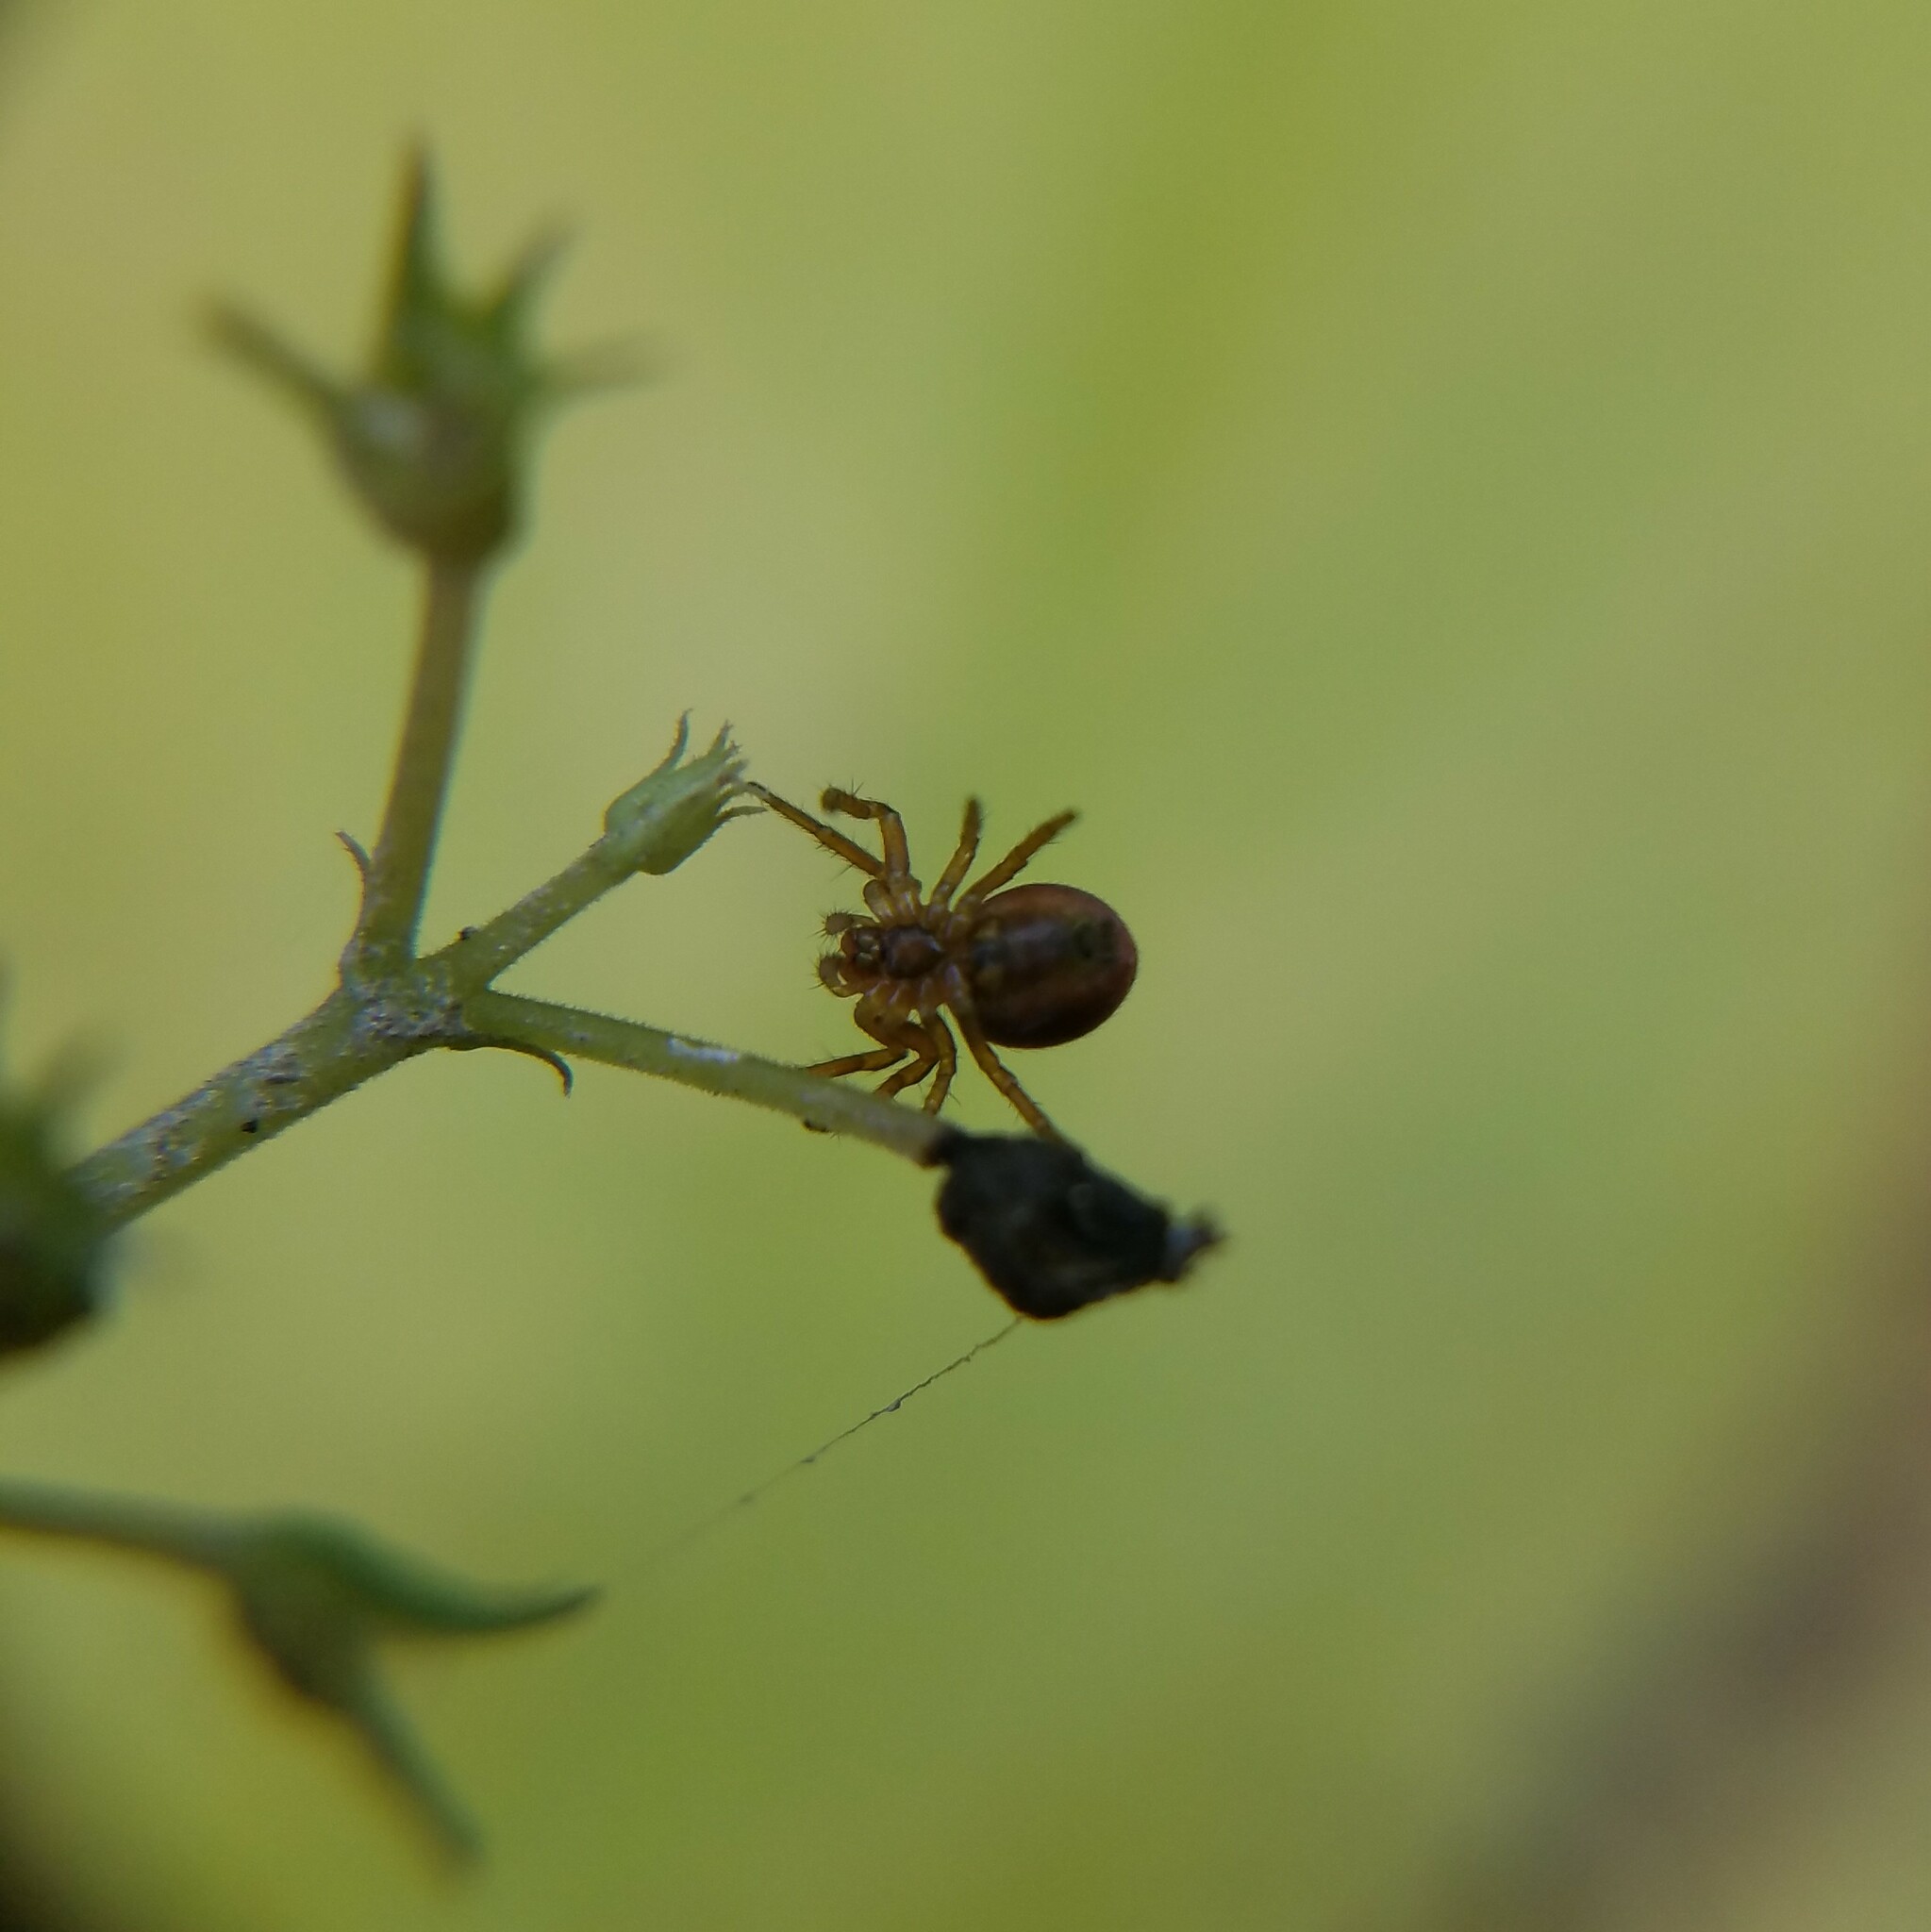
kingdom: Animalia
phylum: Arthropoda
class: Arachnida
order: Araneae
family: Araneidae
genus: Araniella
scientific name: Araniella displicata
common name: Sixspotted orb weaver
